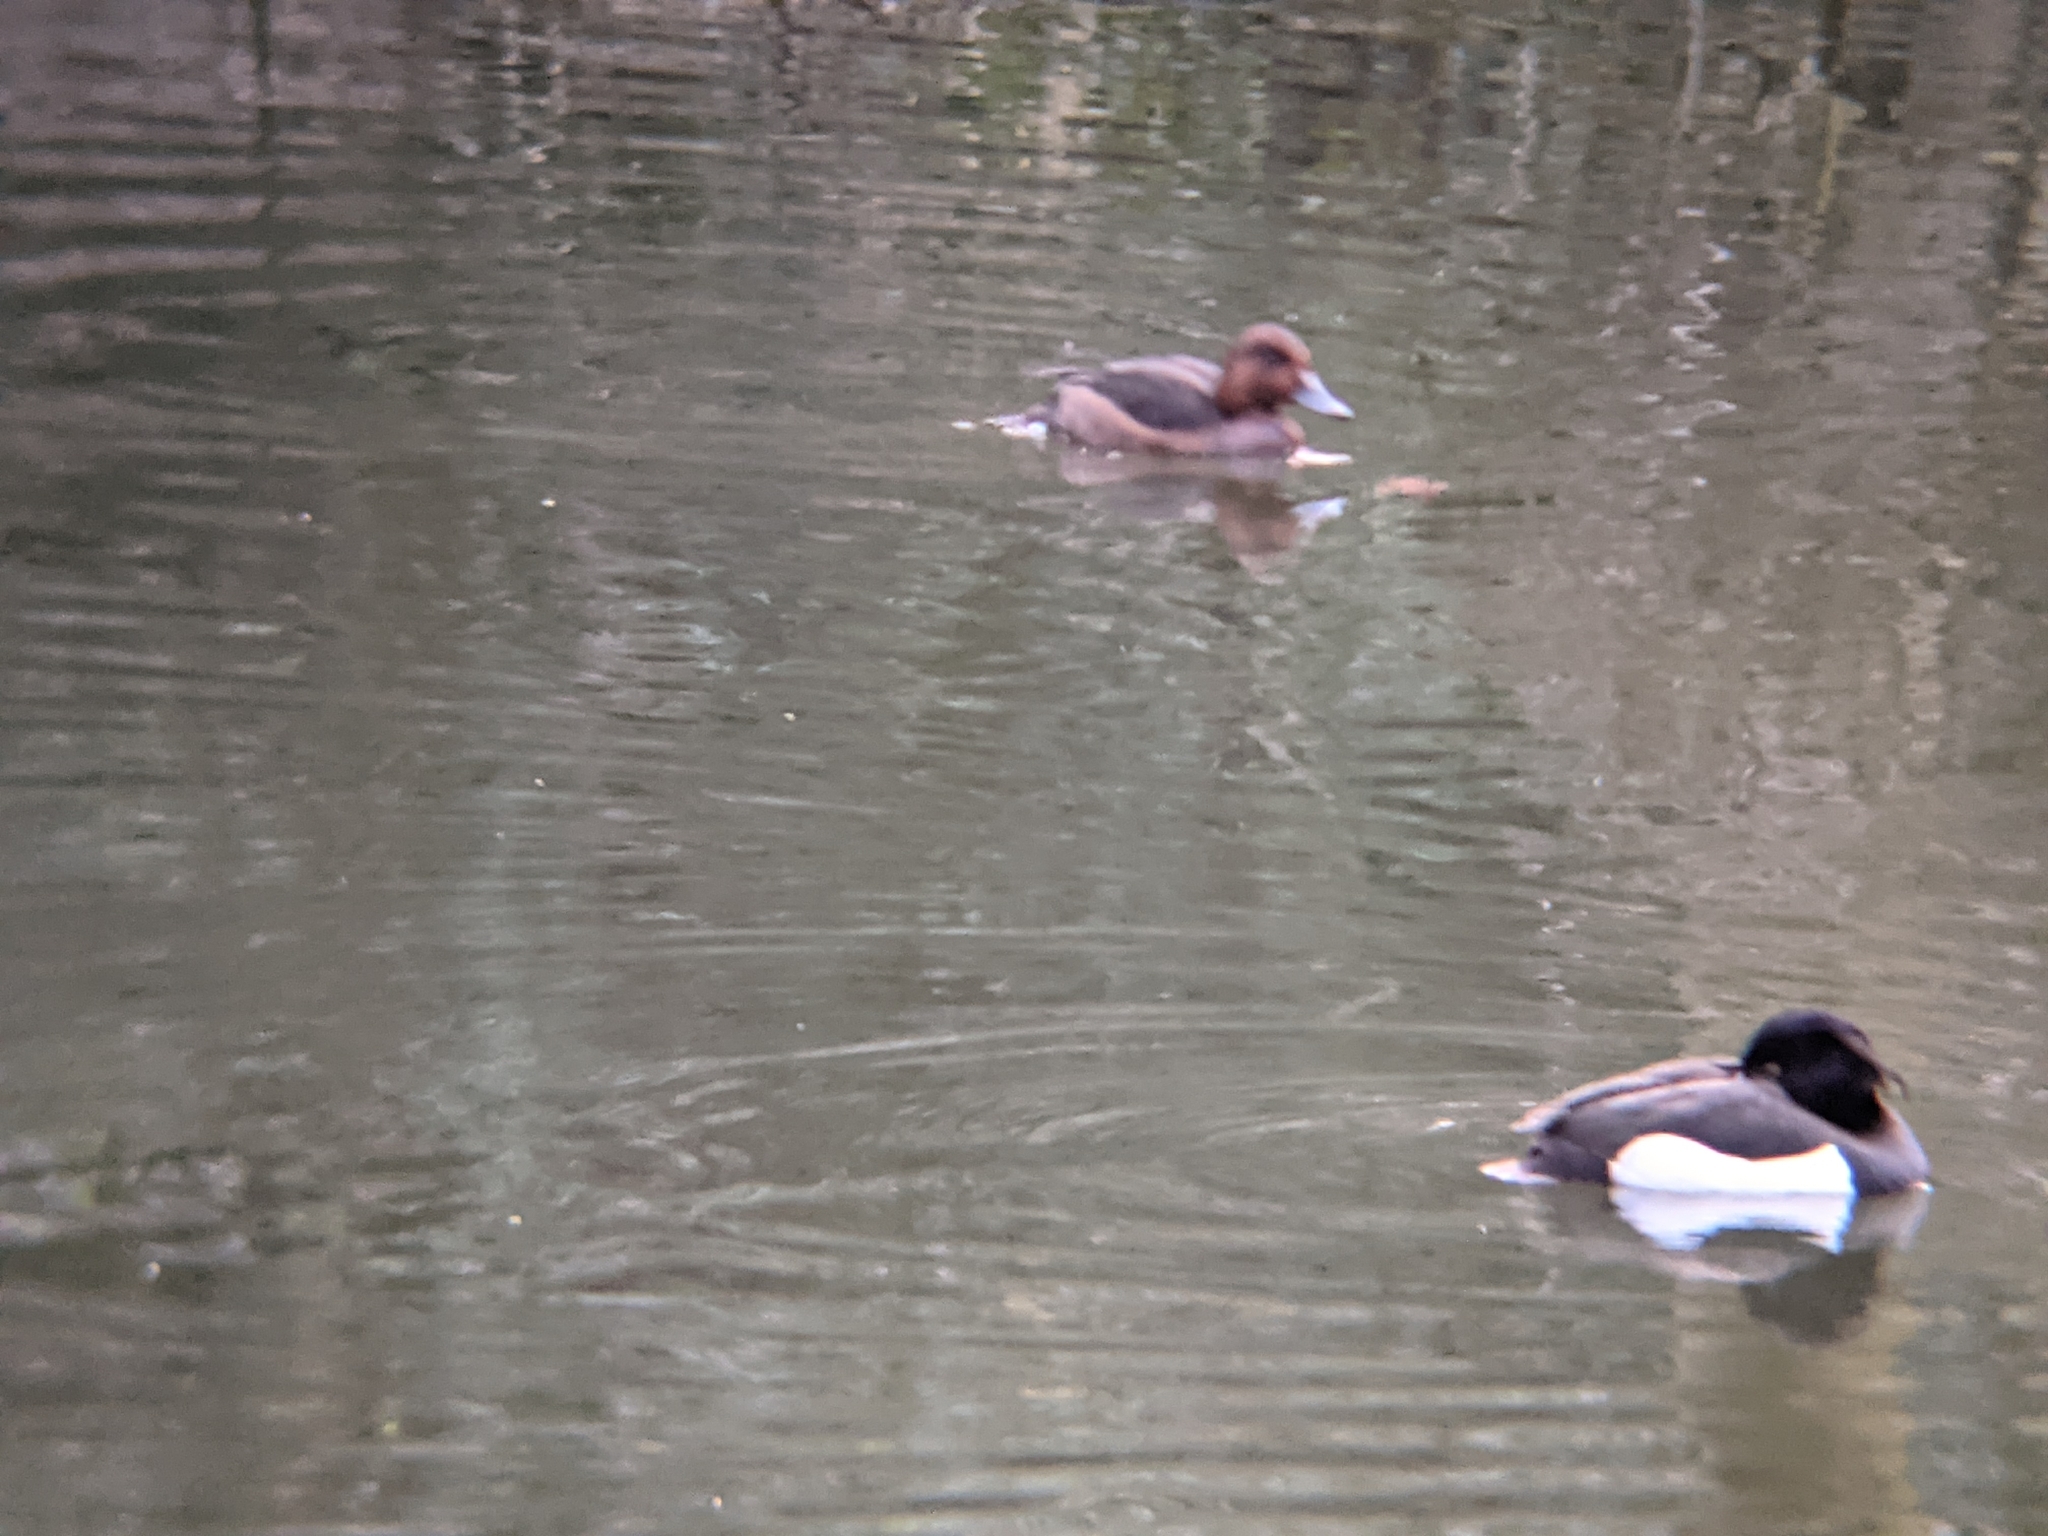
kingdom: Animalia
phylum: Chordata
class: Aves
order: Anseriformes
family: Anatidae
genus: Aythya
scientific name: Aythya nyroca
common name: Ferruginous duck
